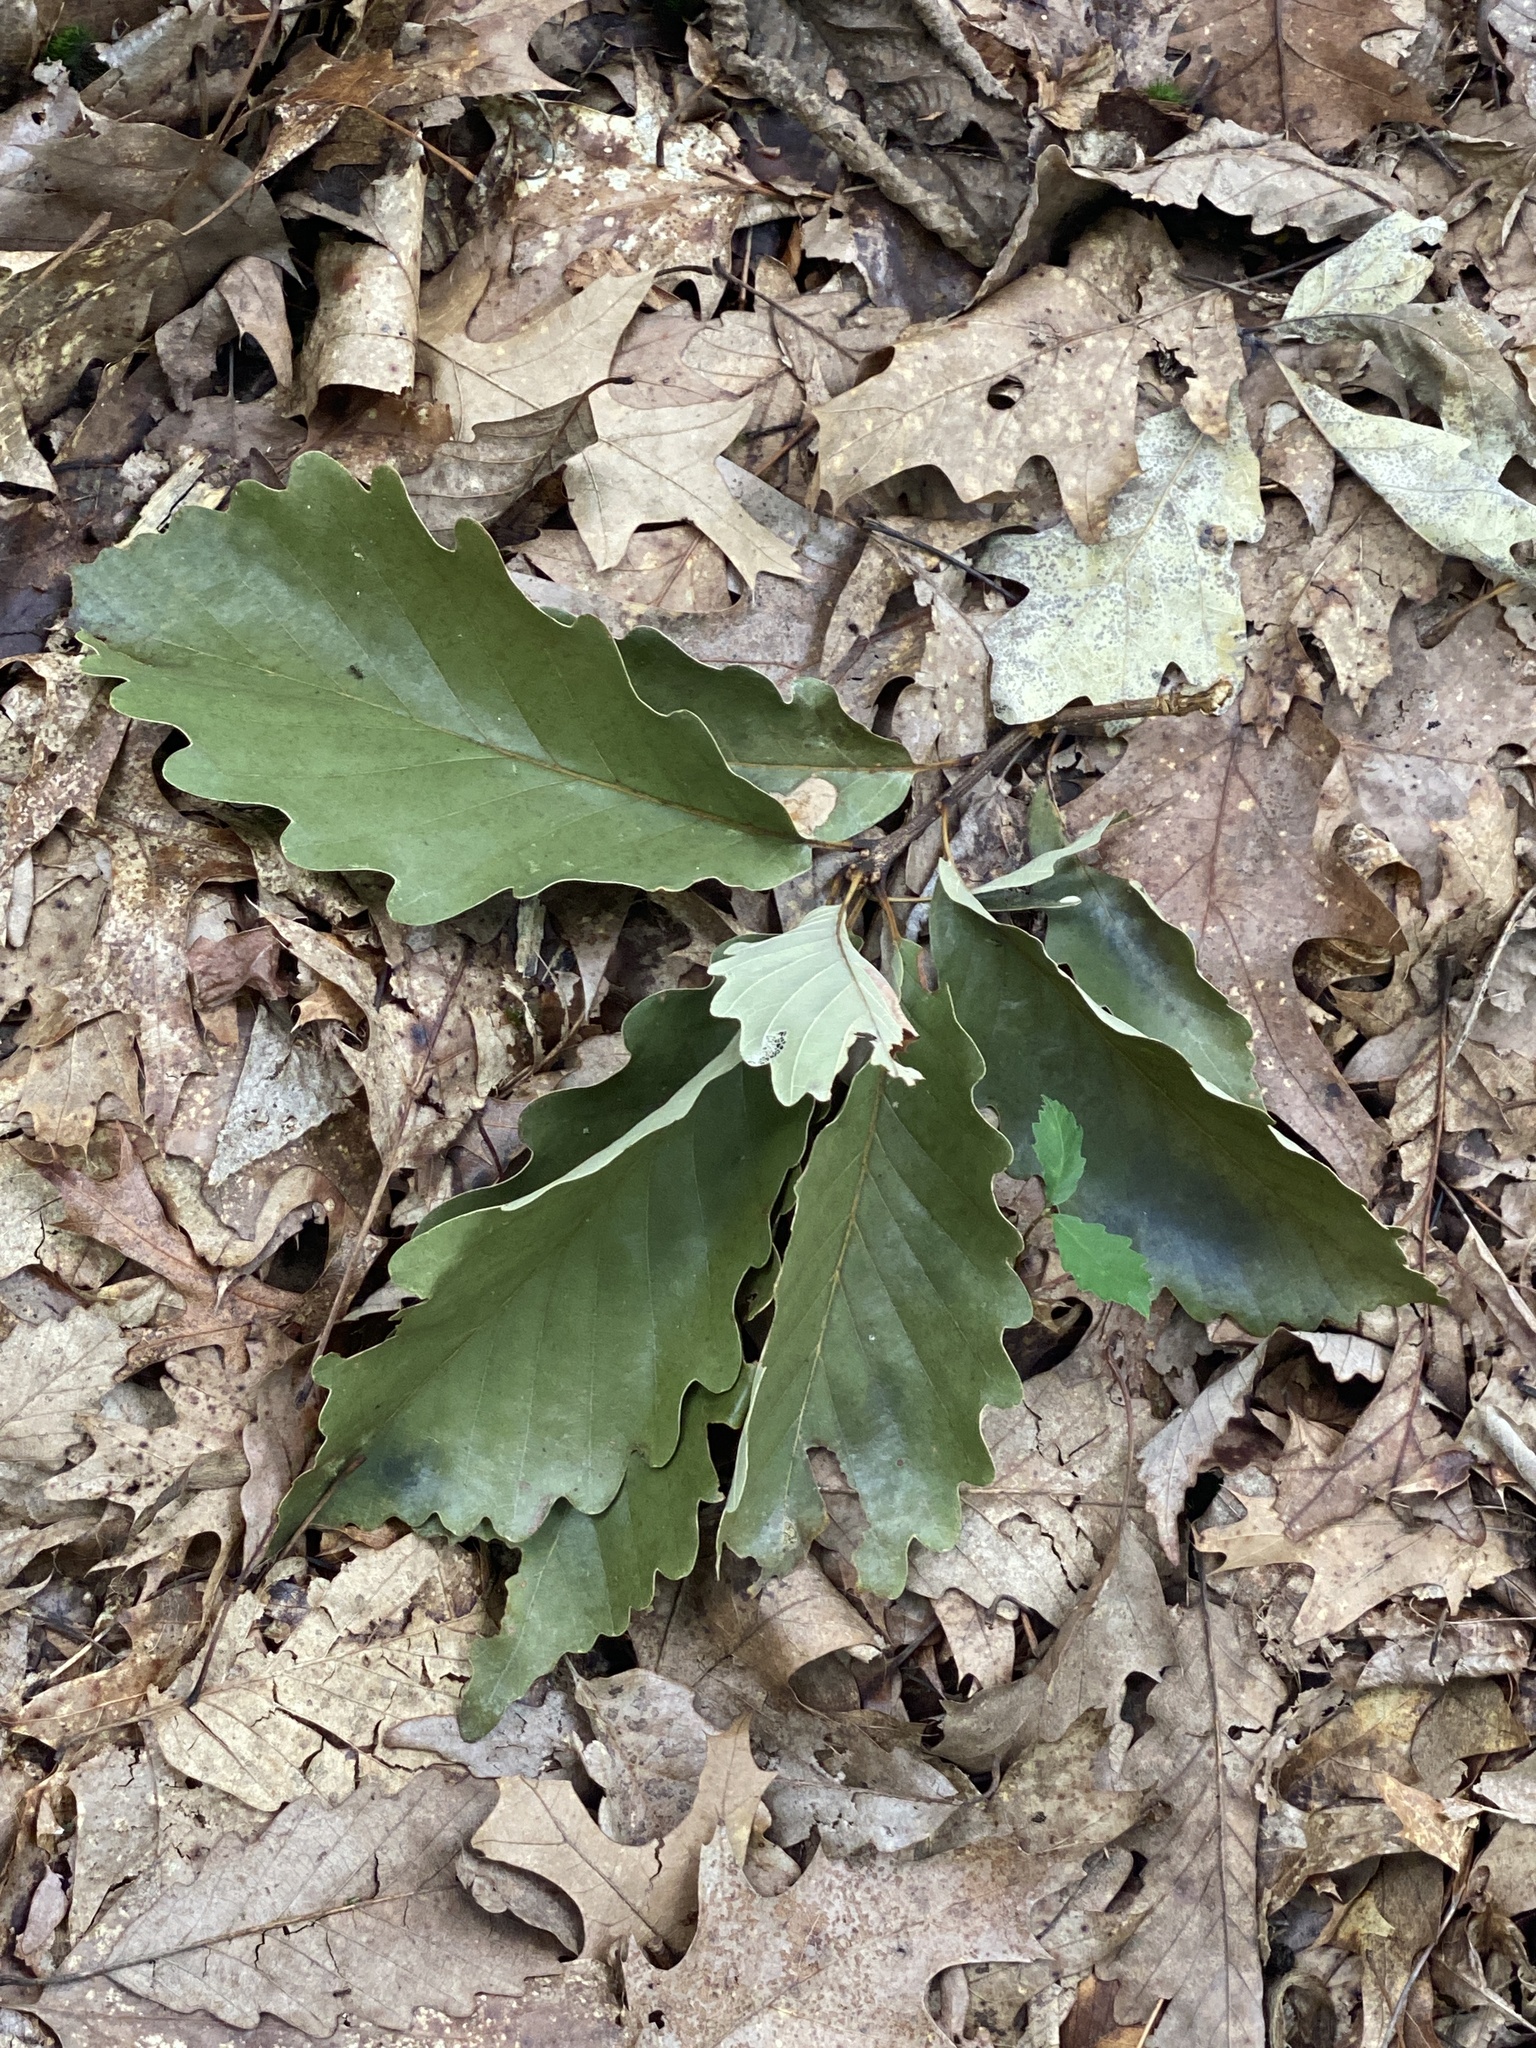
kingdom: Plantae
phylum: Tracheophyta
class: Magnoliopsida
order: Fagales
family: Fagaceae
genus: Quercus
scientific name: Quercus montana
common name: Chestnut oak
